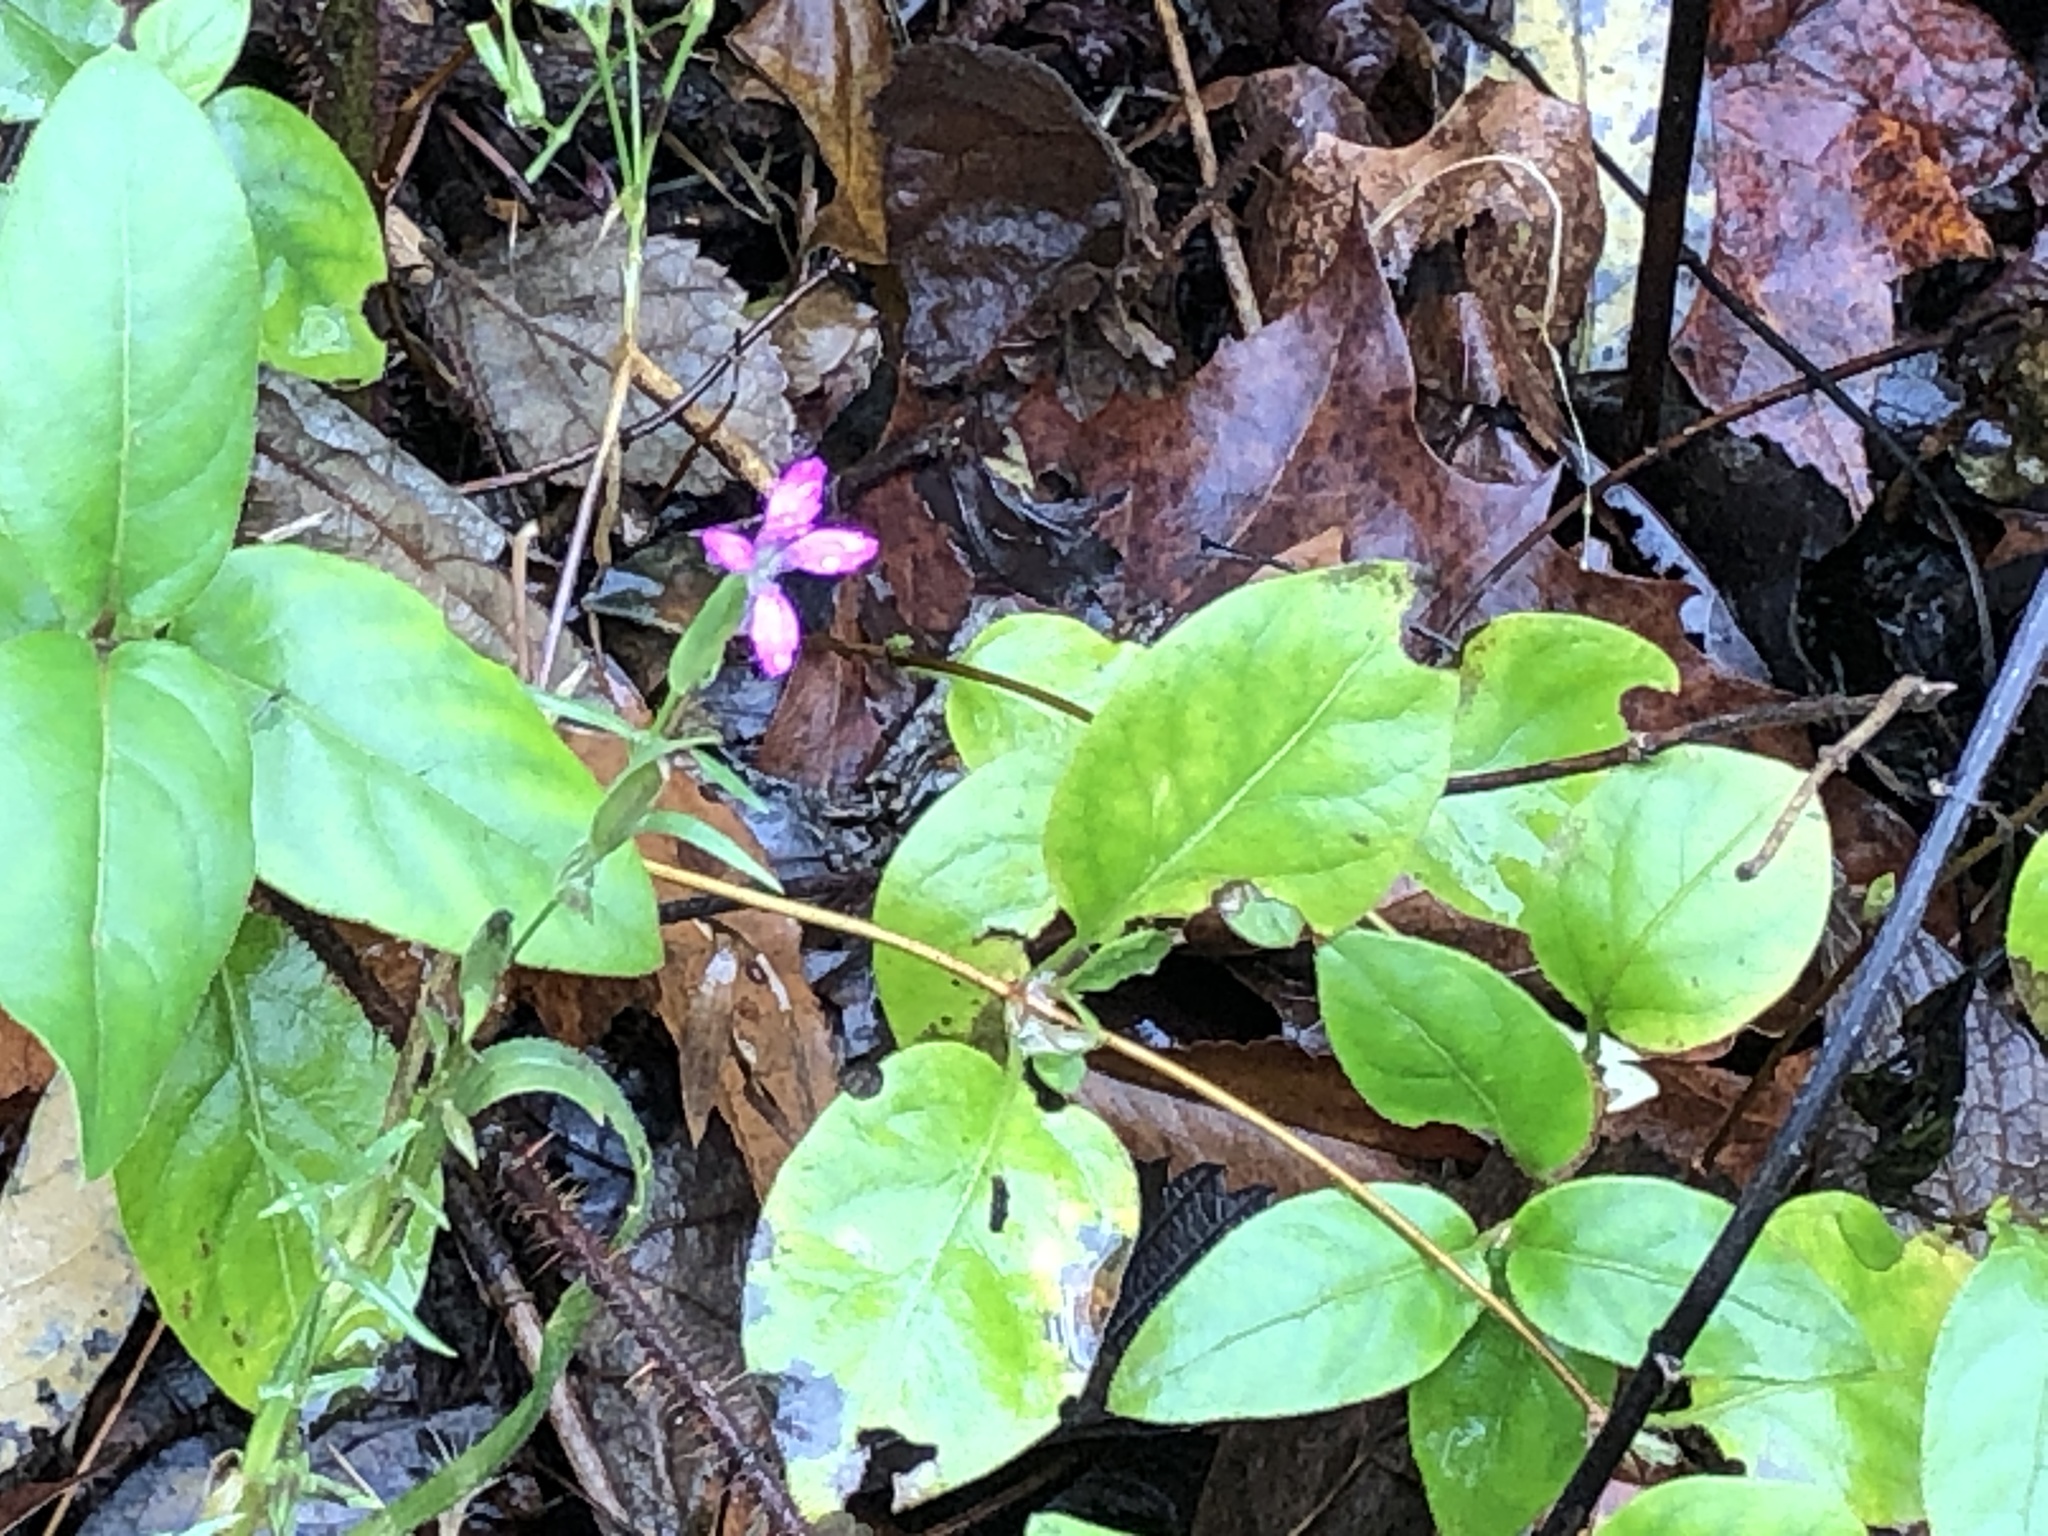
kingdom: Plantae
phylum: Tracheophyta
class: Magnoliopsida
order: Dipsacales
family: Caprifoliaceae
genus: Lonicera
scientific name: Lonicera japonica
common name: Japanese honeysuckle
